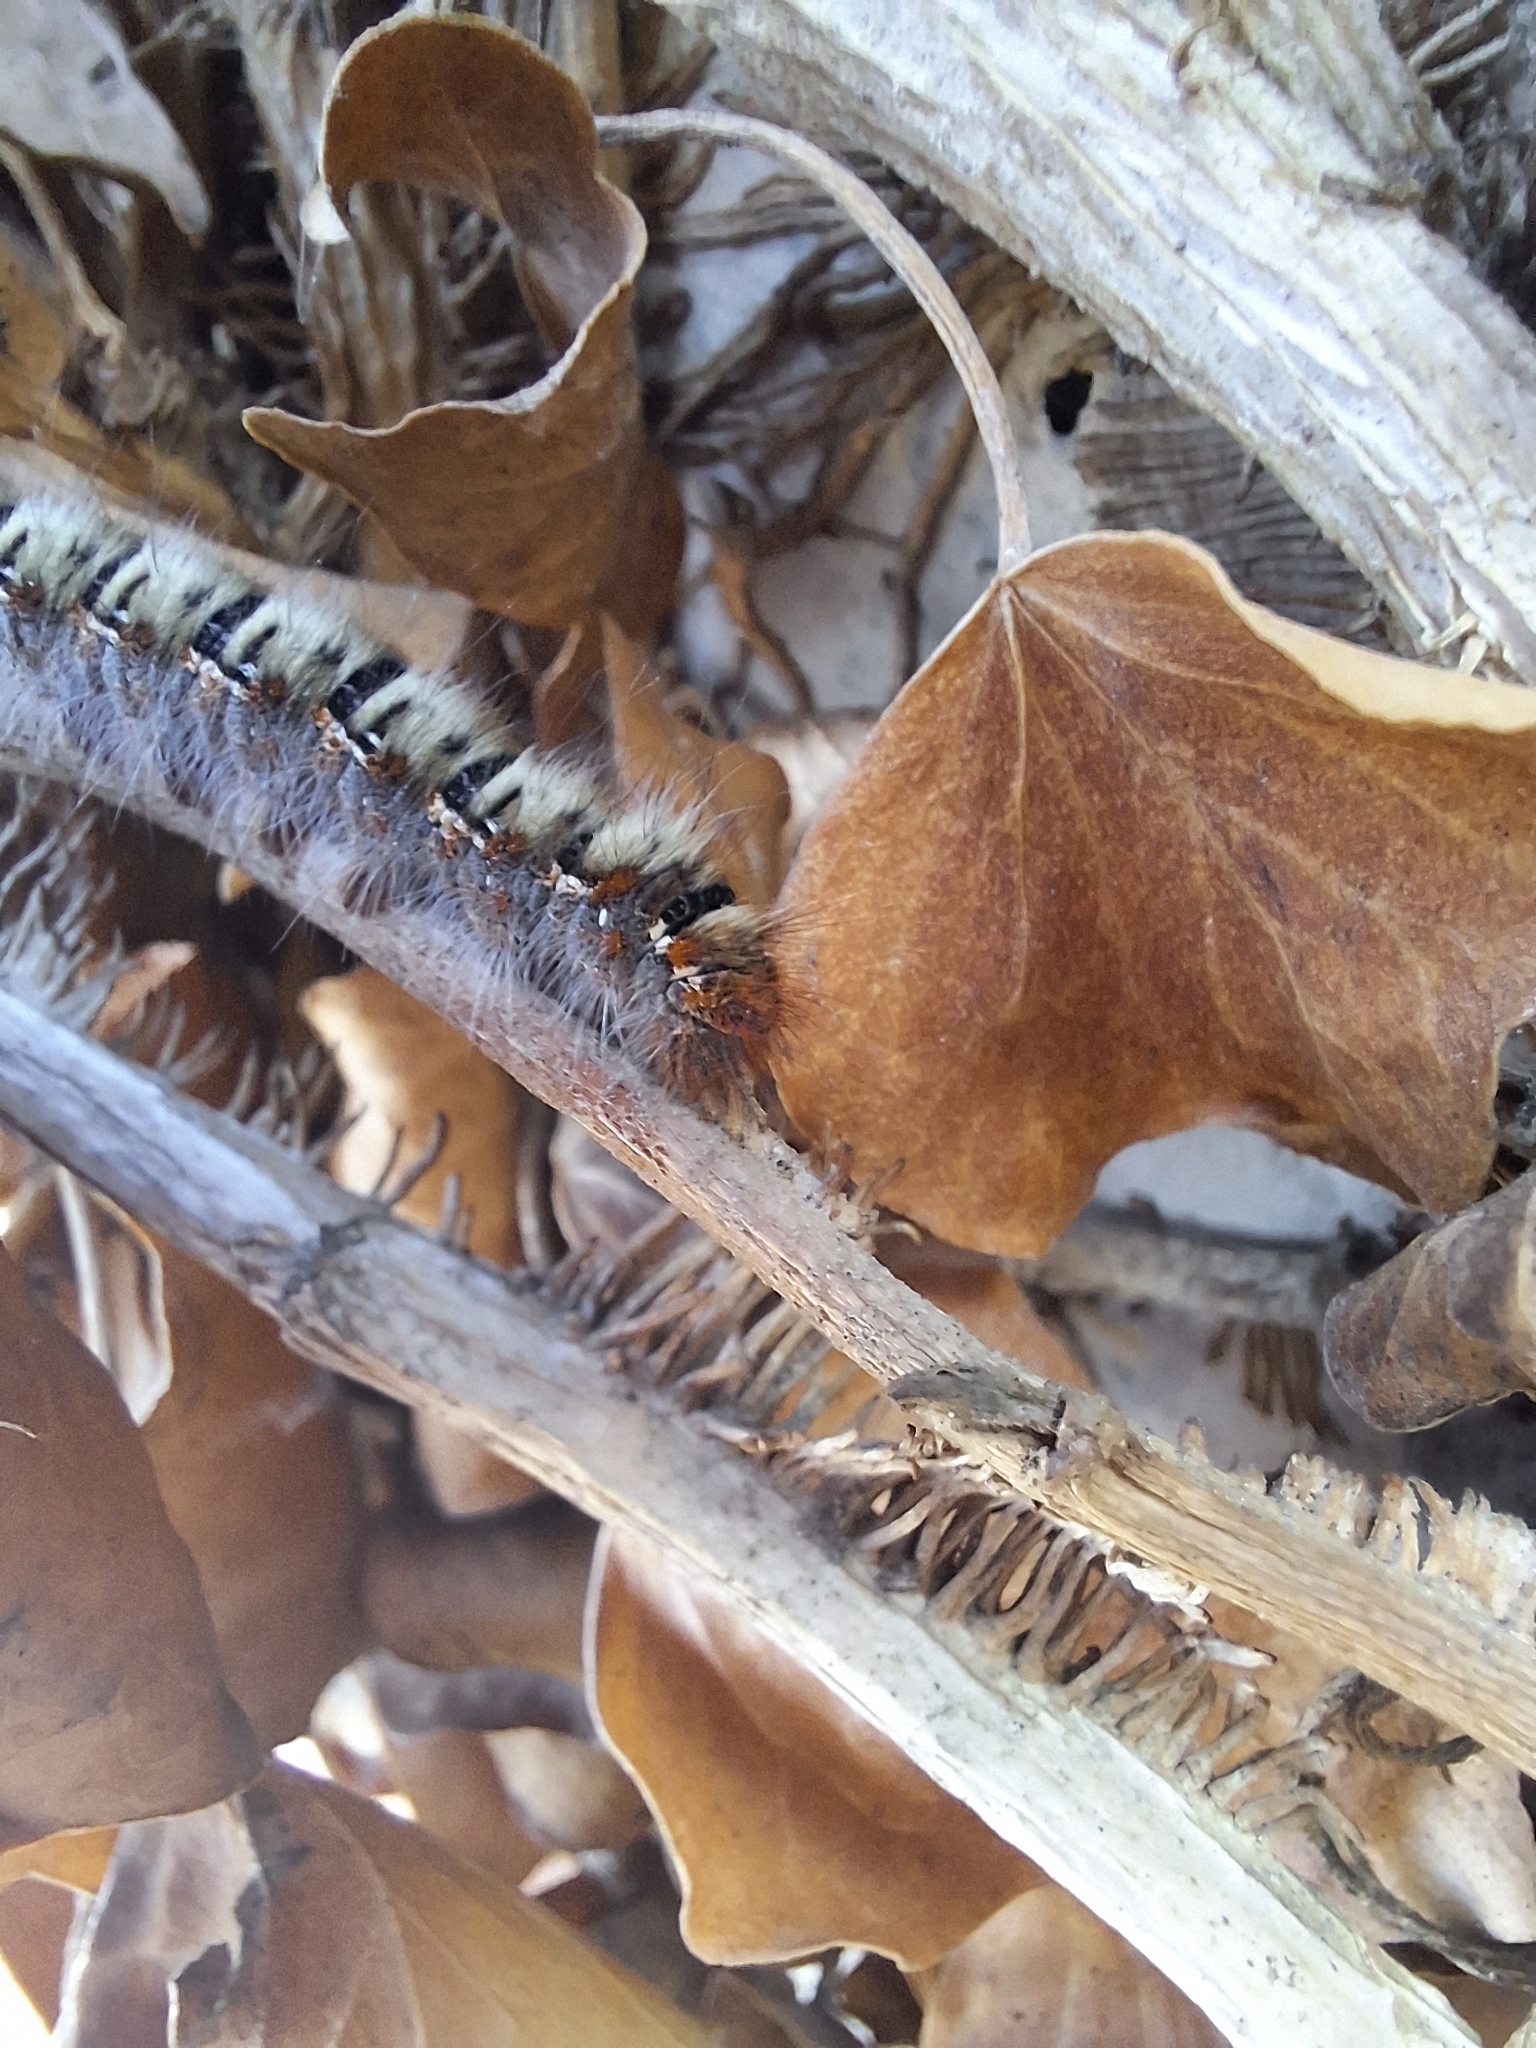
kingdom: Animalia
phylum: Arthropoda
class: Insecta
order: Lepidoptera
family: Lasiocampidae
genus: Lasiocampa
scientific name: Lasiocampa quercus
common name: Oak eggar
